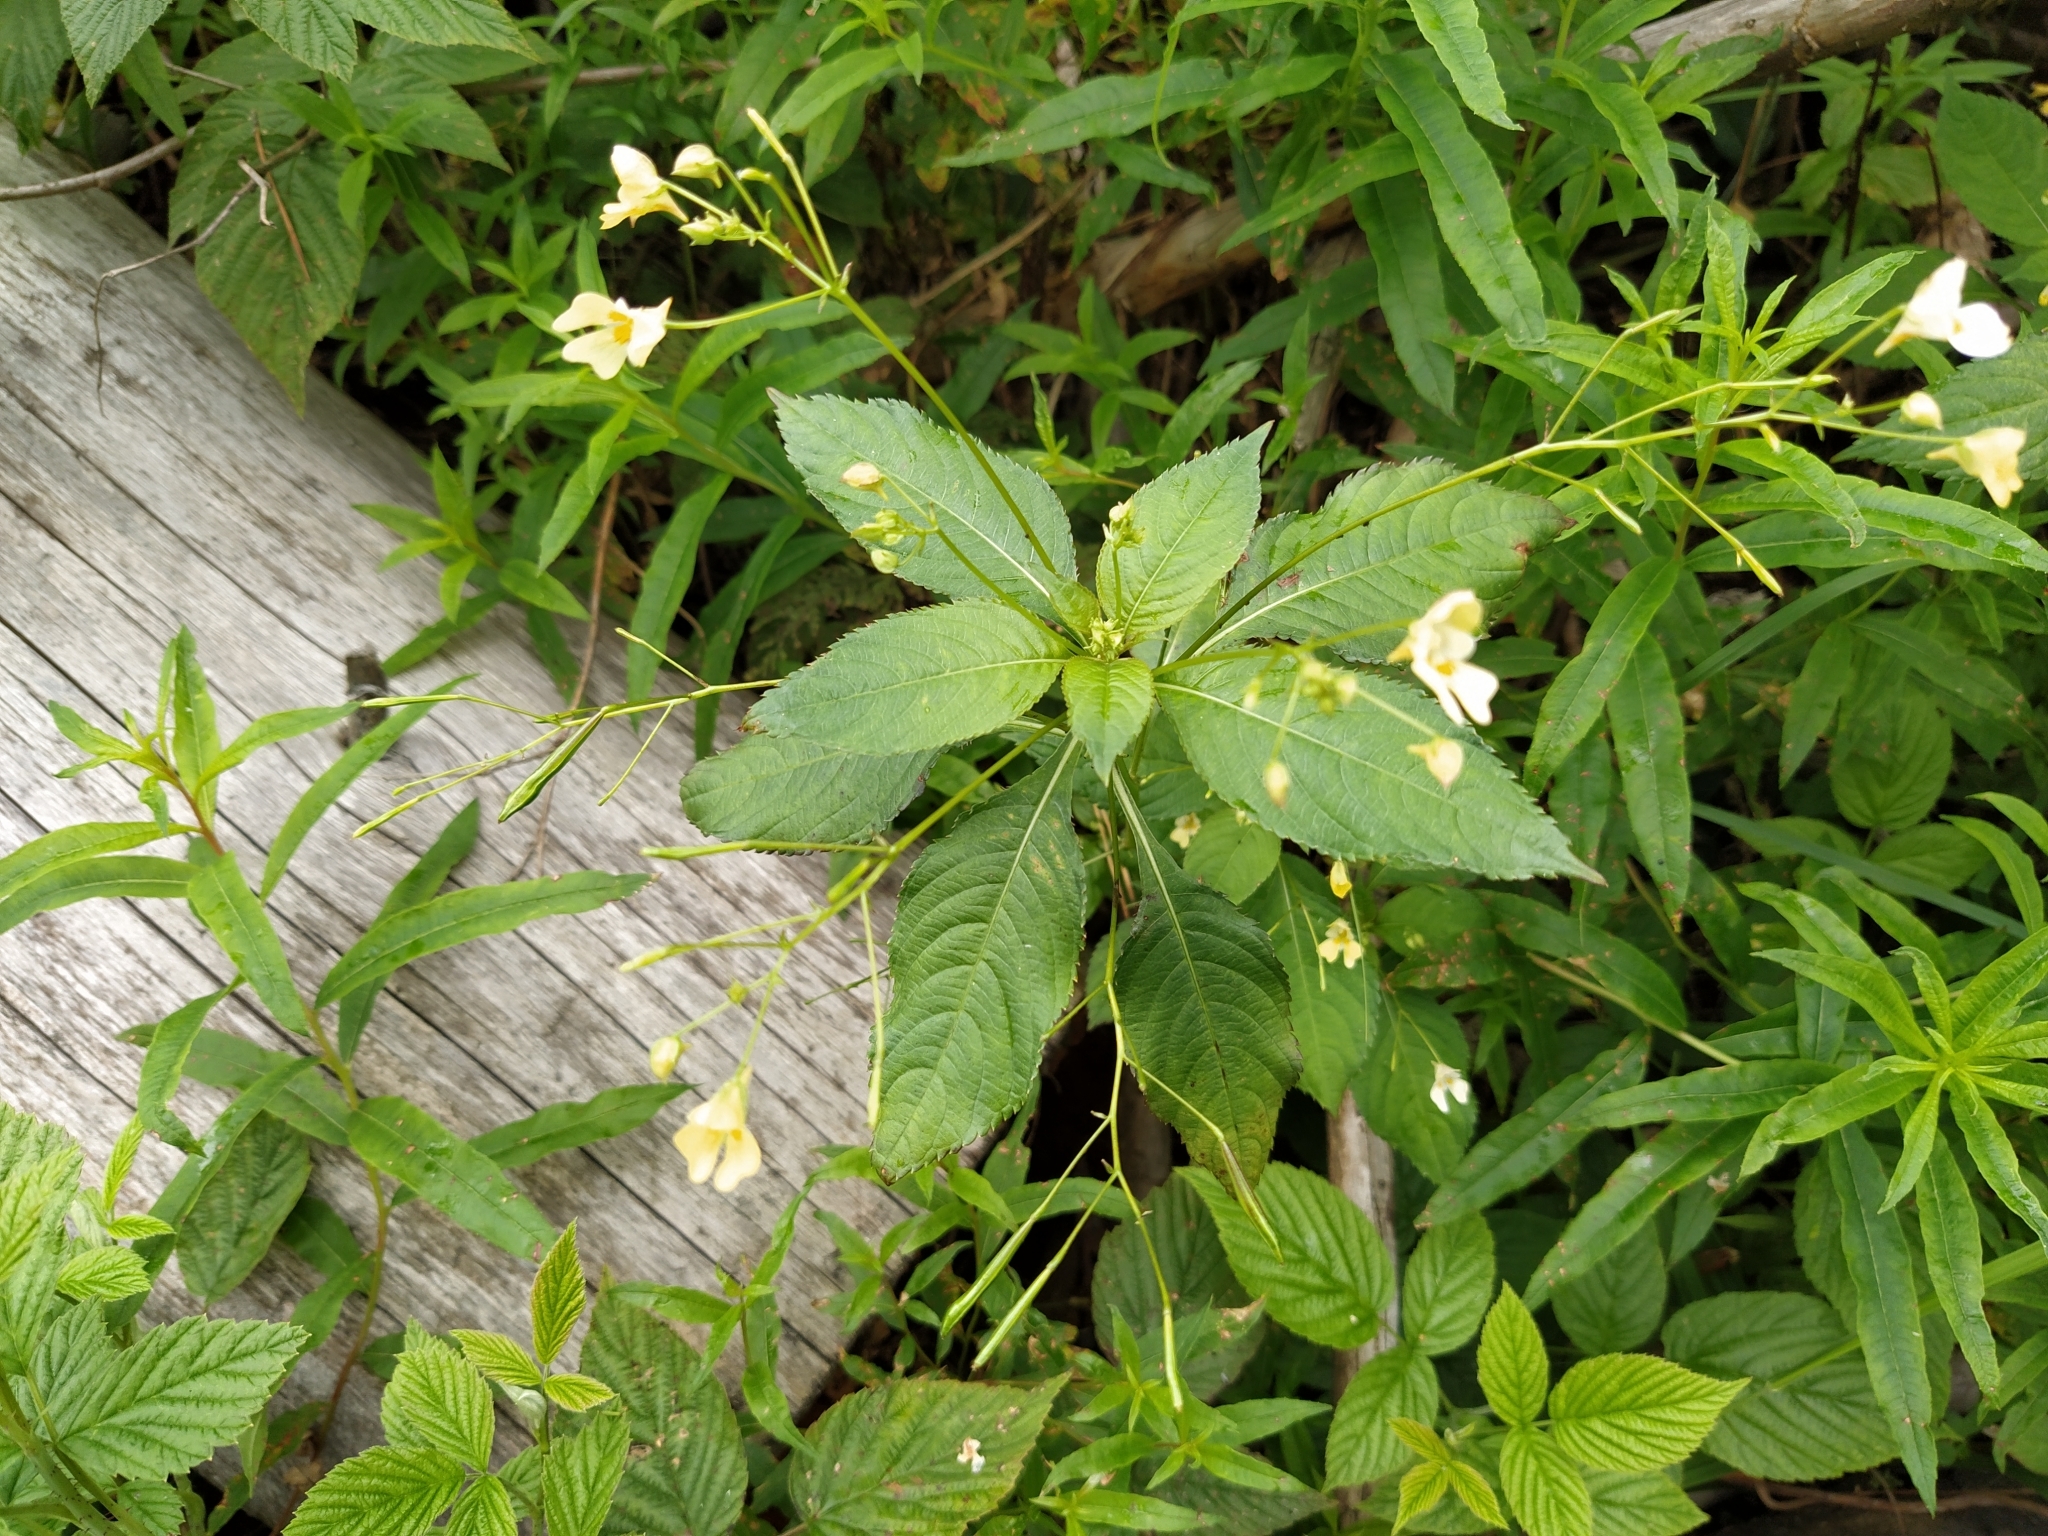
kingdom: Plantae
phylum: Tracheophyta
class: Magnoliopsida
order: Ericales
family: Balsaminaceae
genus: Impatiens
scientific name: Impatiens parviflora
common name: Small balsam
